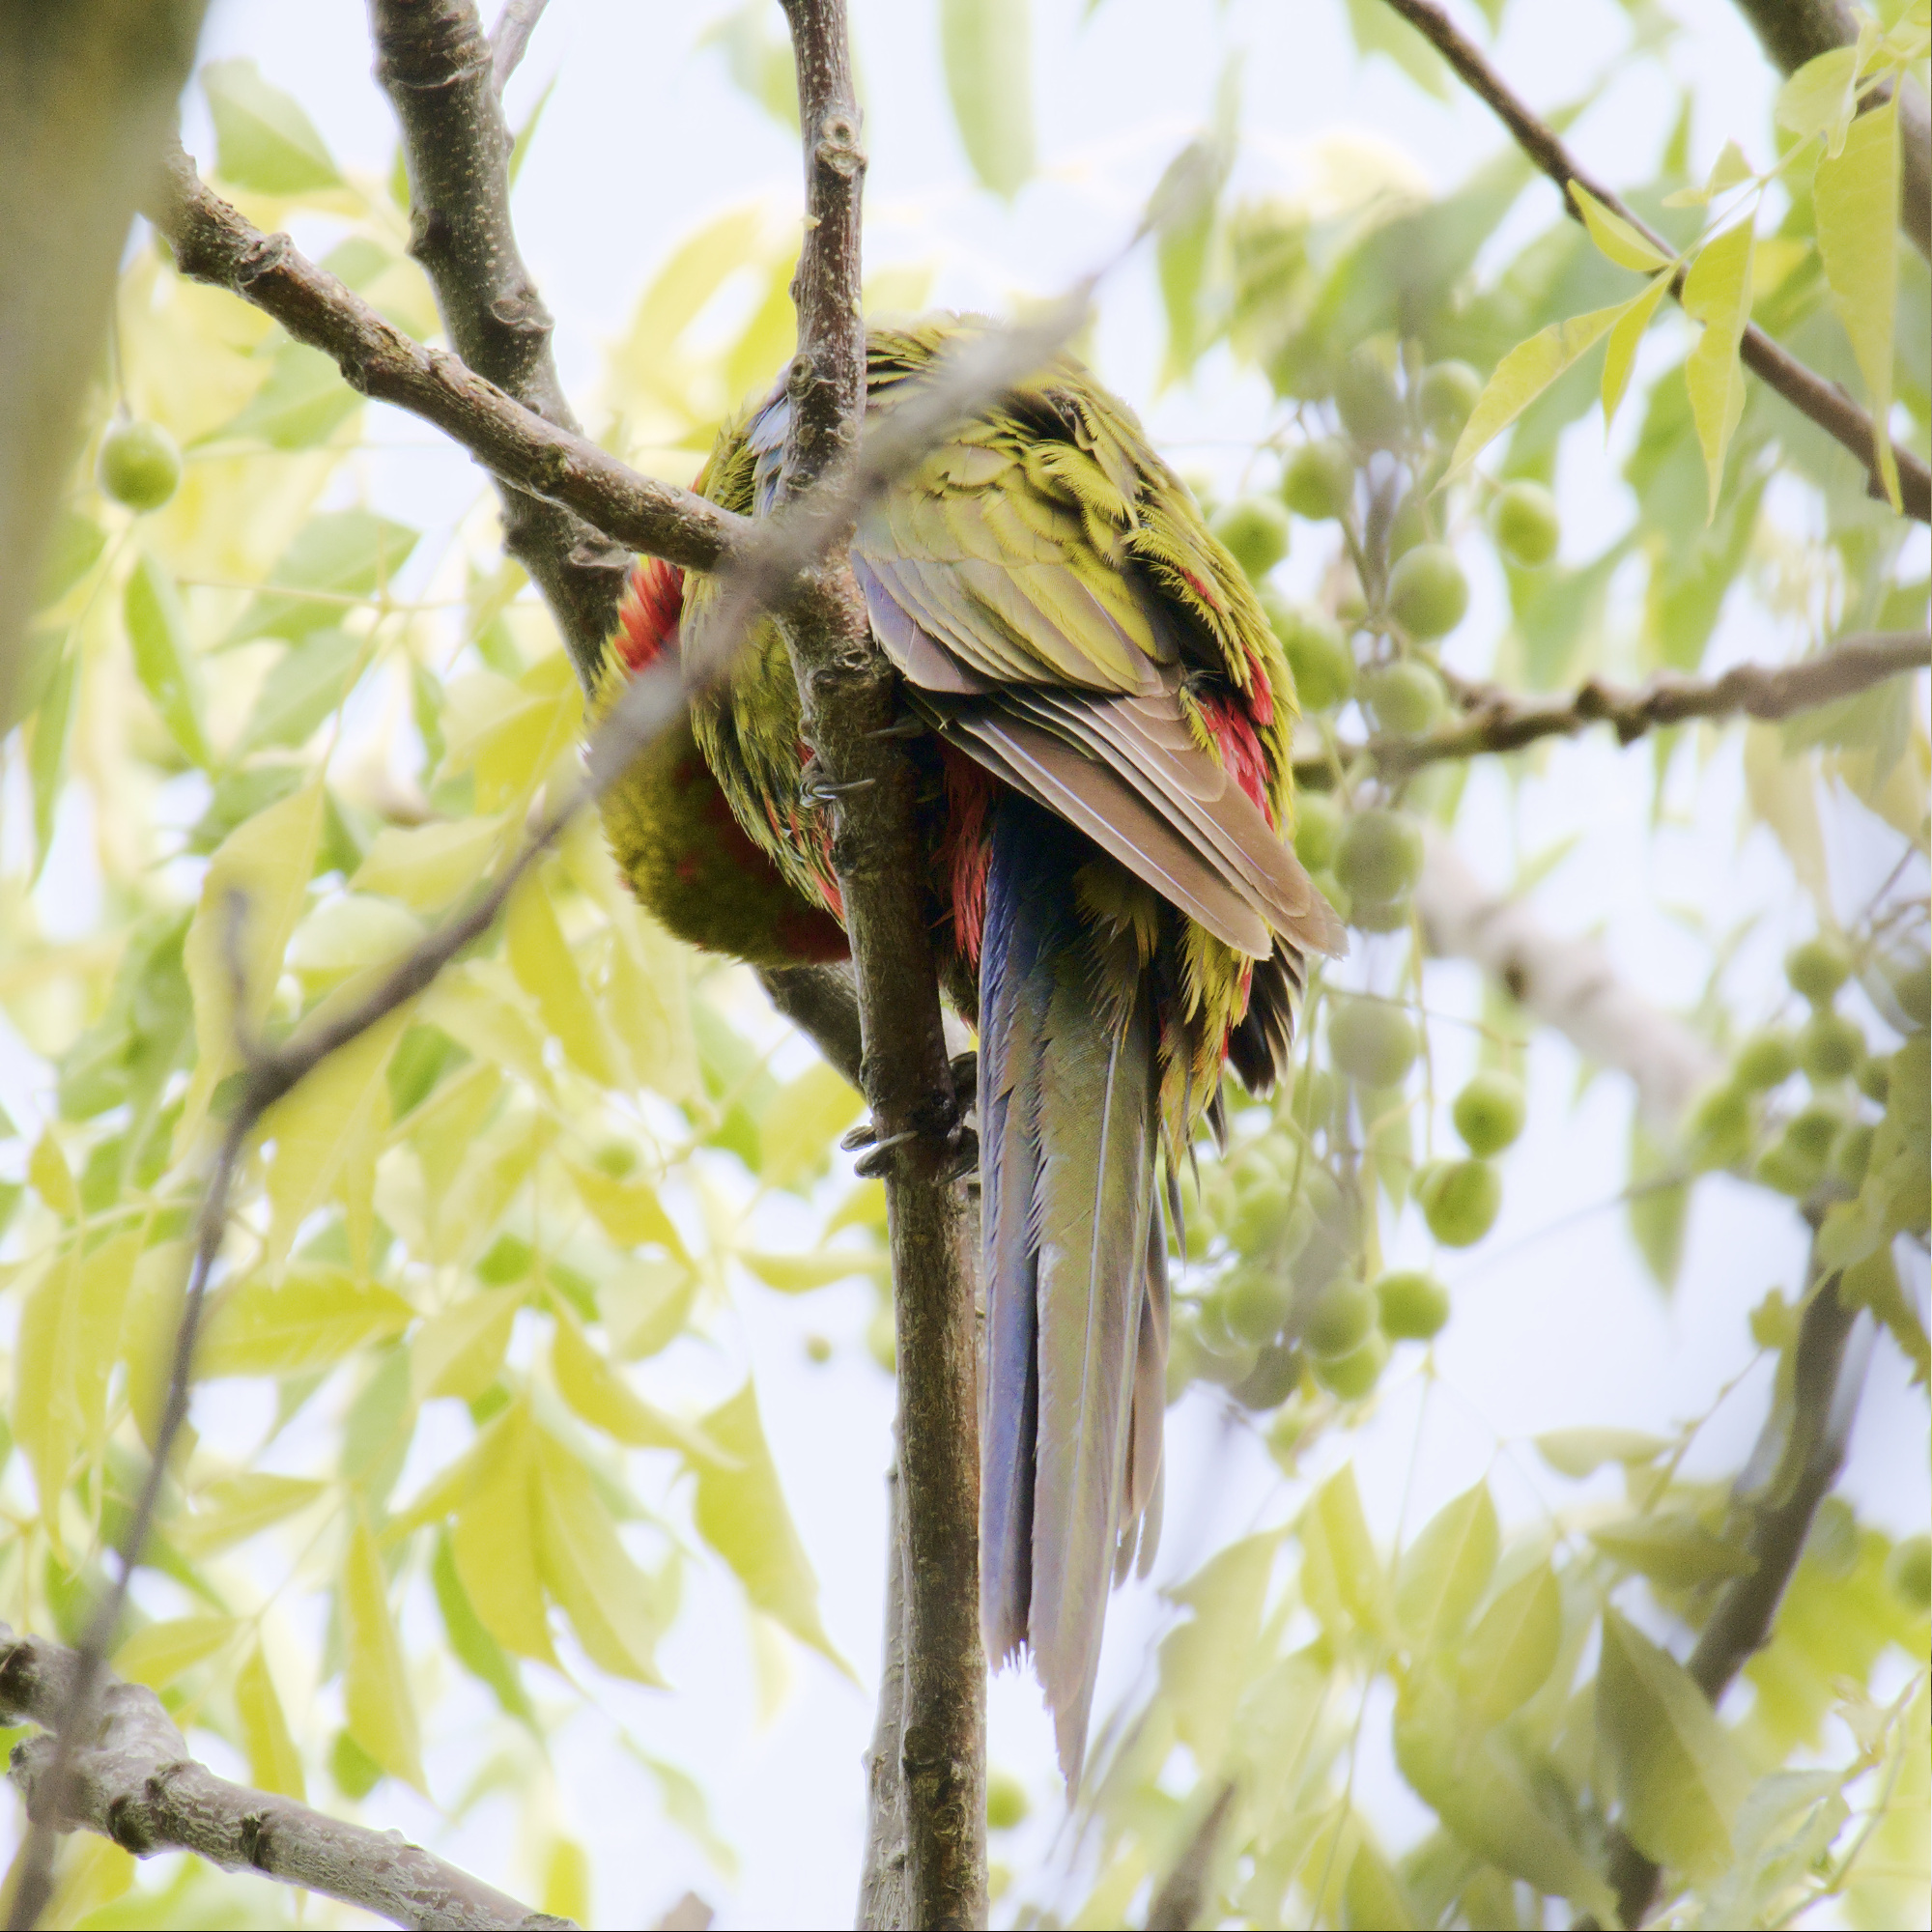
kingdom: Animalia
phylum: Chordata
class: Aves
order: Psittaciformes
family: Psittacidae
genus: Platycercus
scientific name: Platycercus elegans
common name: Crimson rosella
